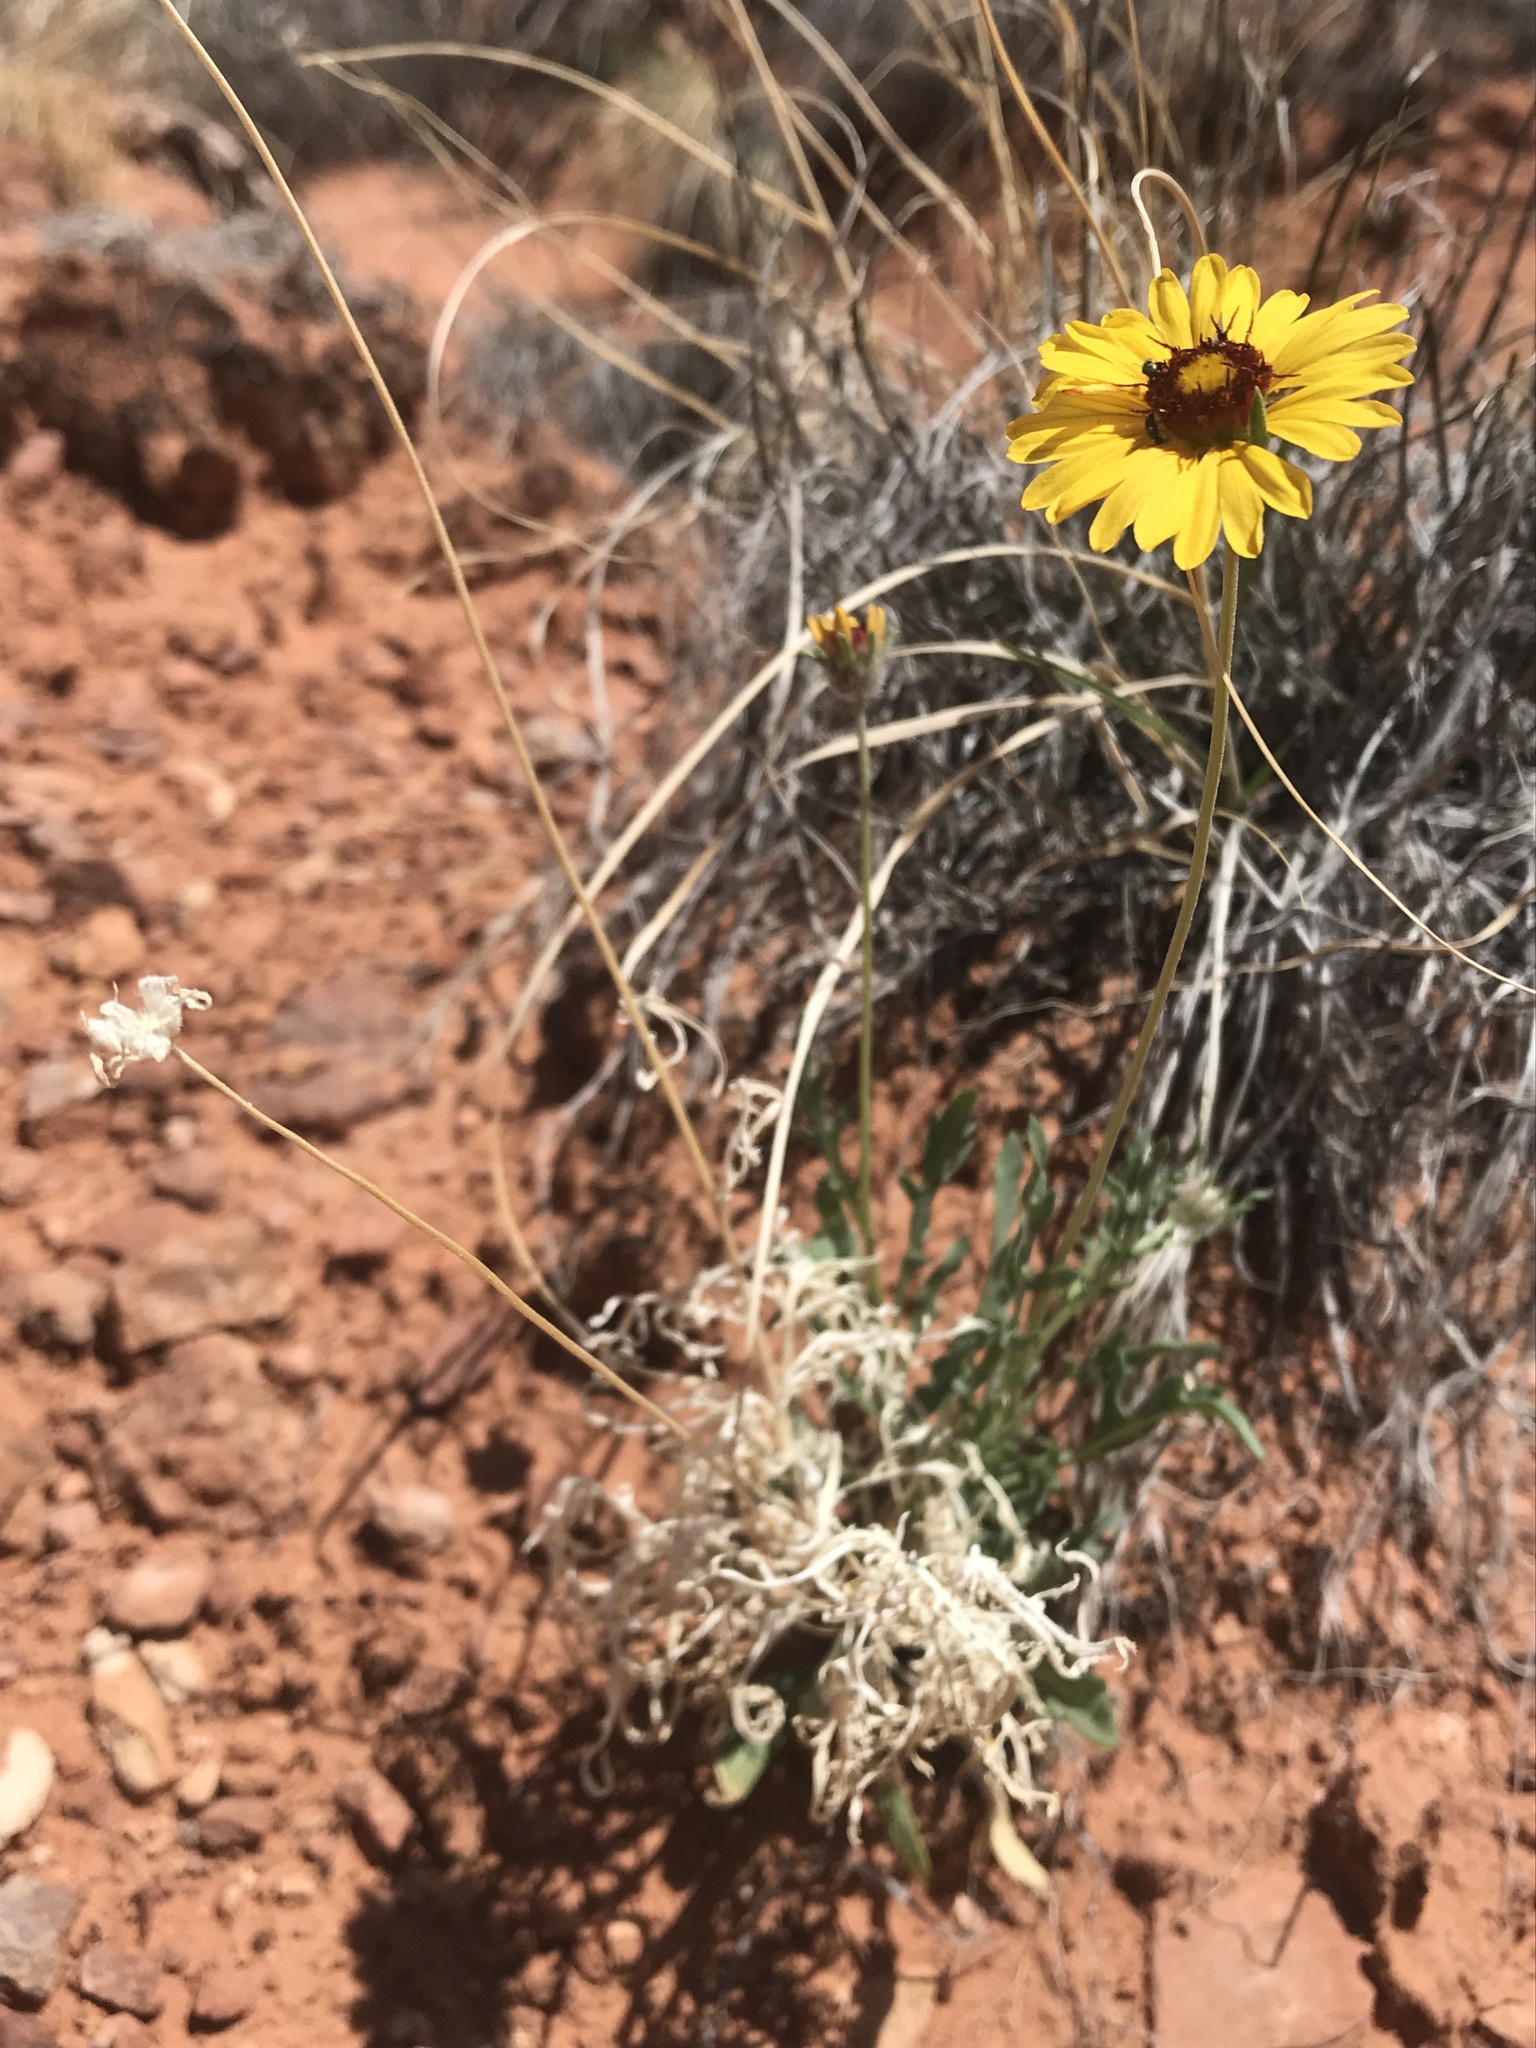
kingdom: Plantae
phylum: Tracheophyta
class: Magnoliopsida
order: Asterales
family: Asteraceae
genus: Gaillardia
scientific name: Gaillardia pinnatifida
